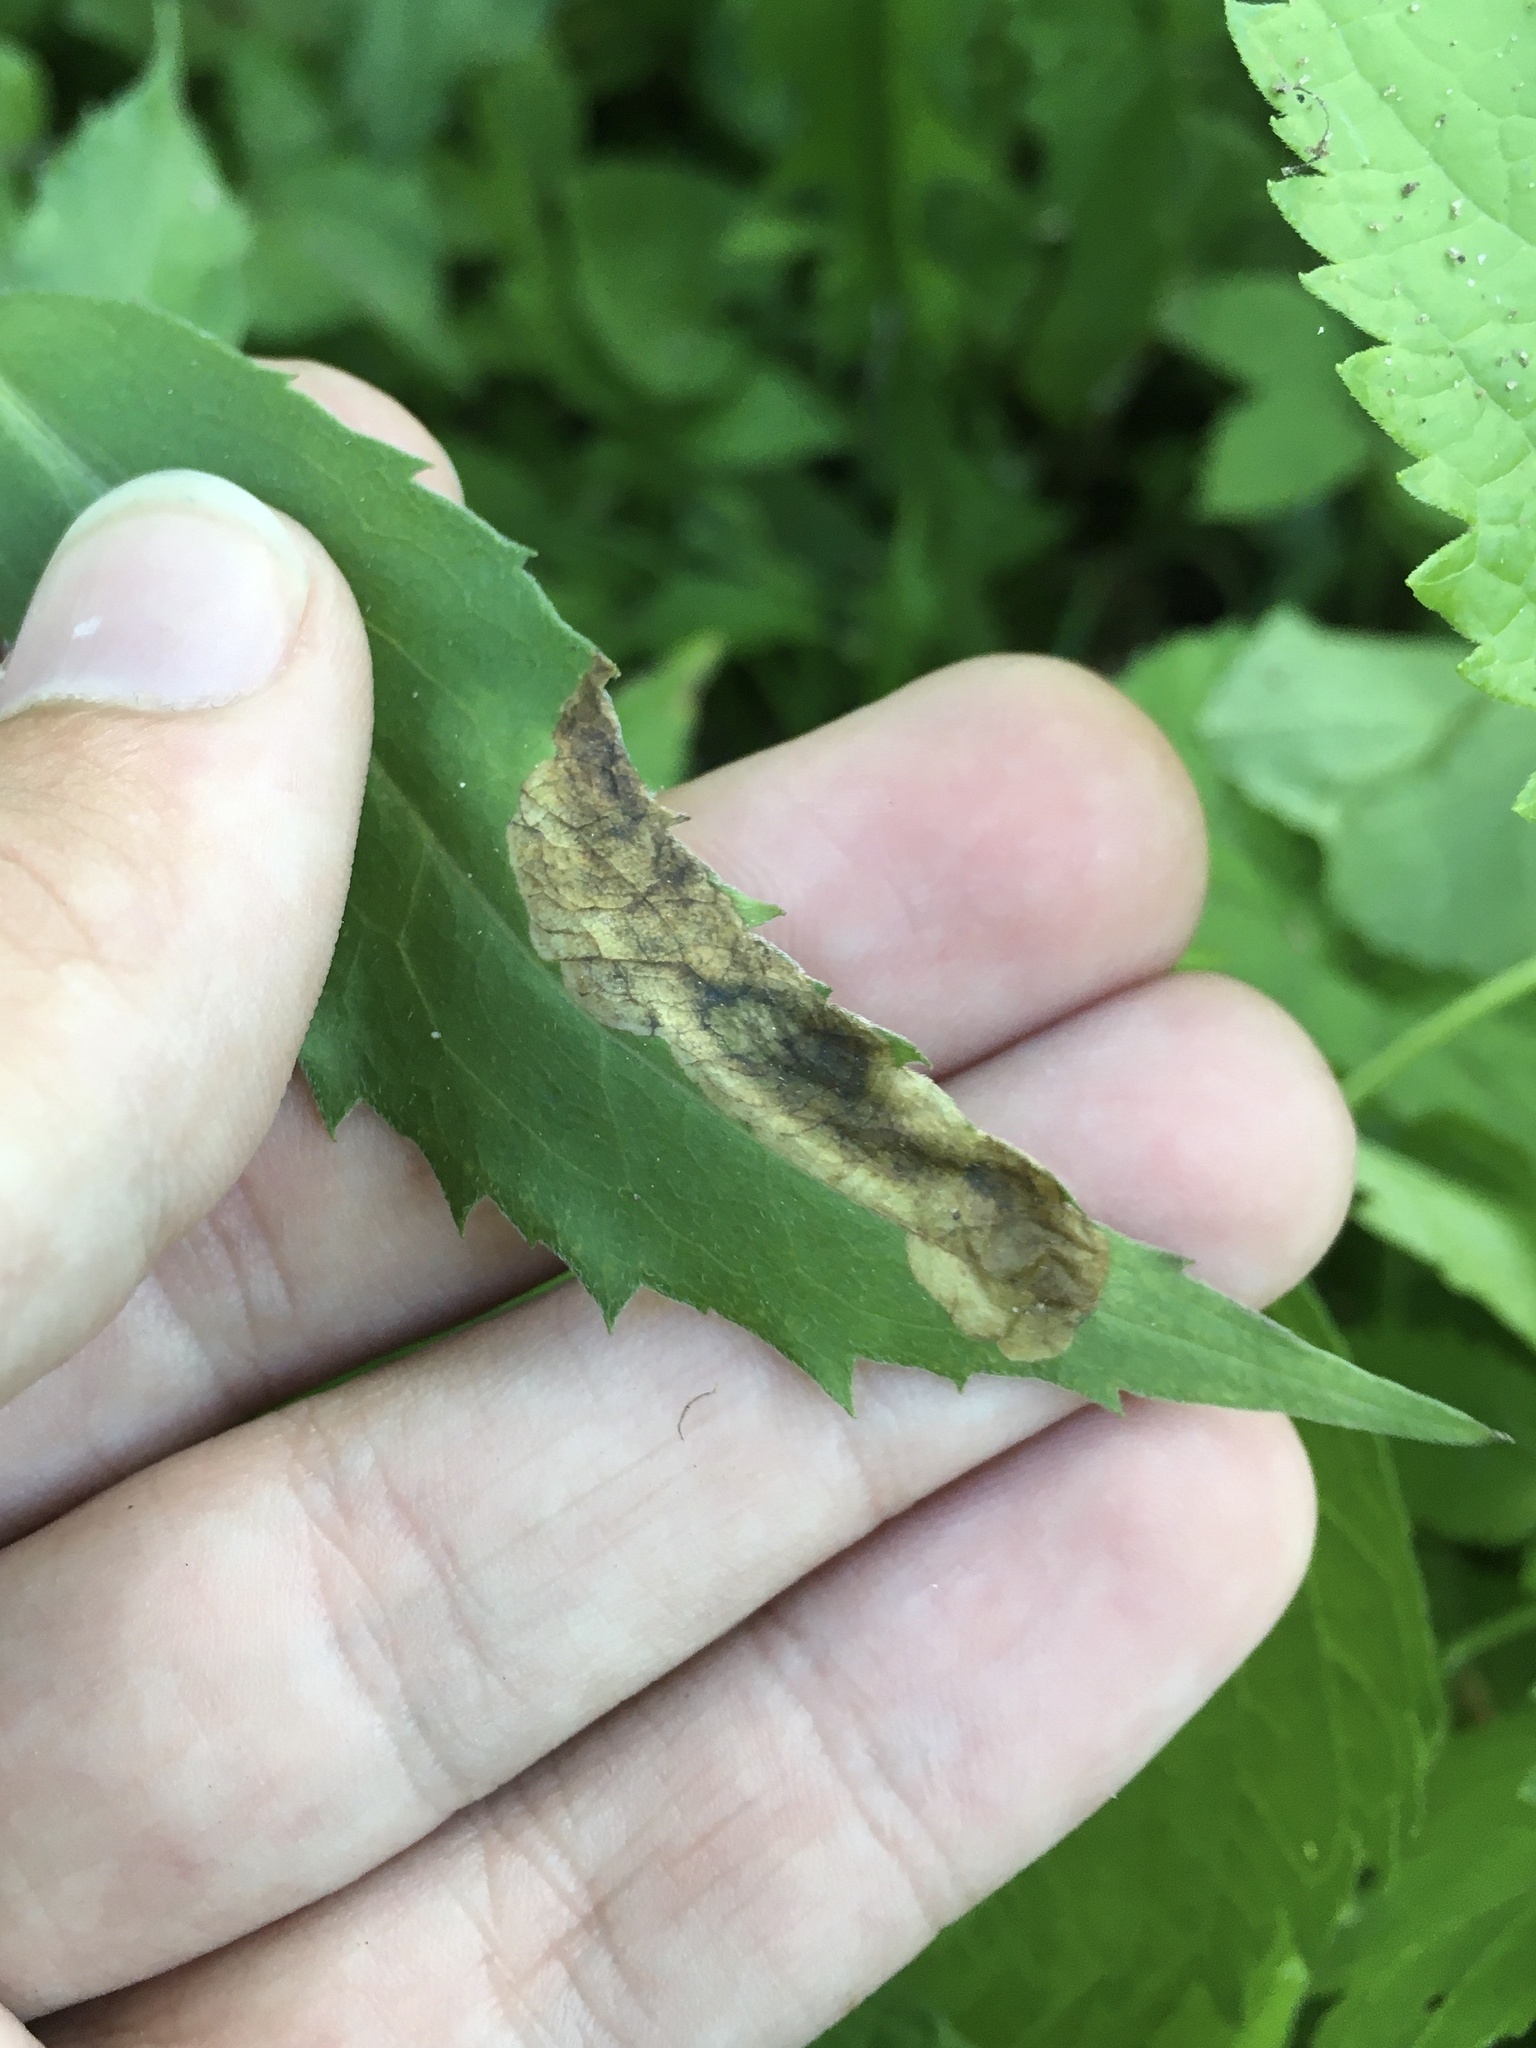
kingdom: Animalia
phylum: Arthropoda
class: Insecta
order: Diptera
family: Agromyzidae
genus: Nemorimyza
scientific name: Nemorimyza posticata
